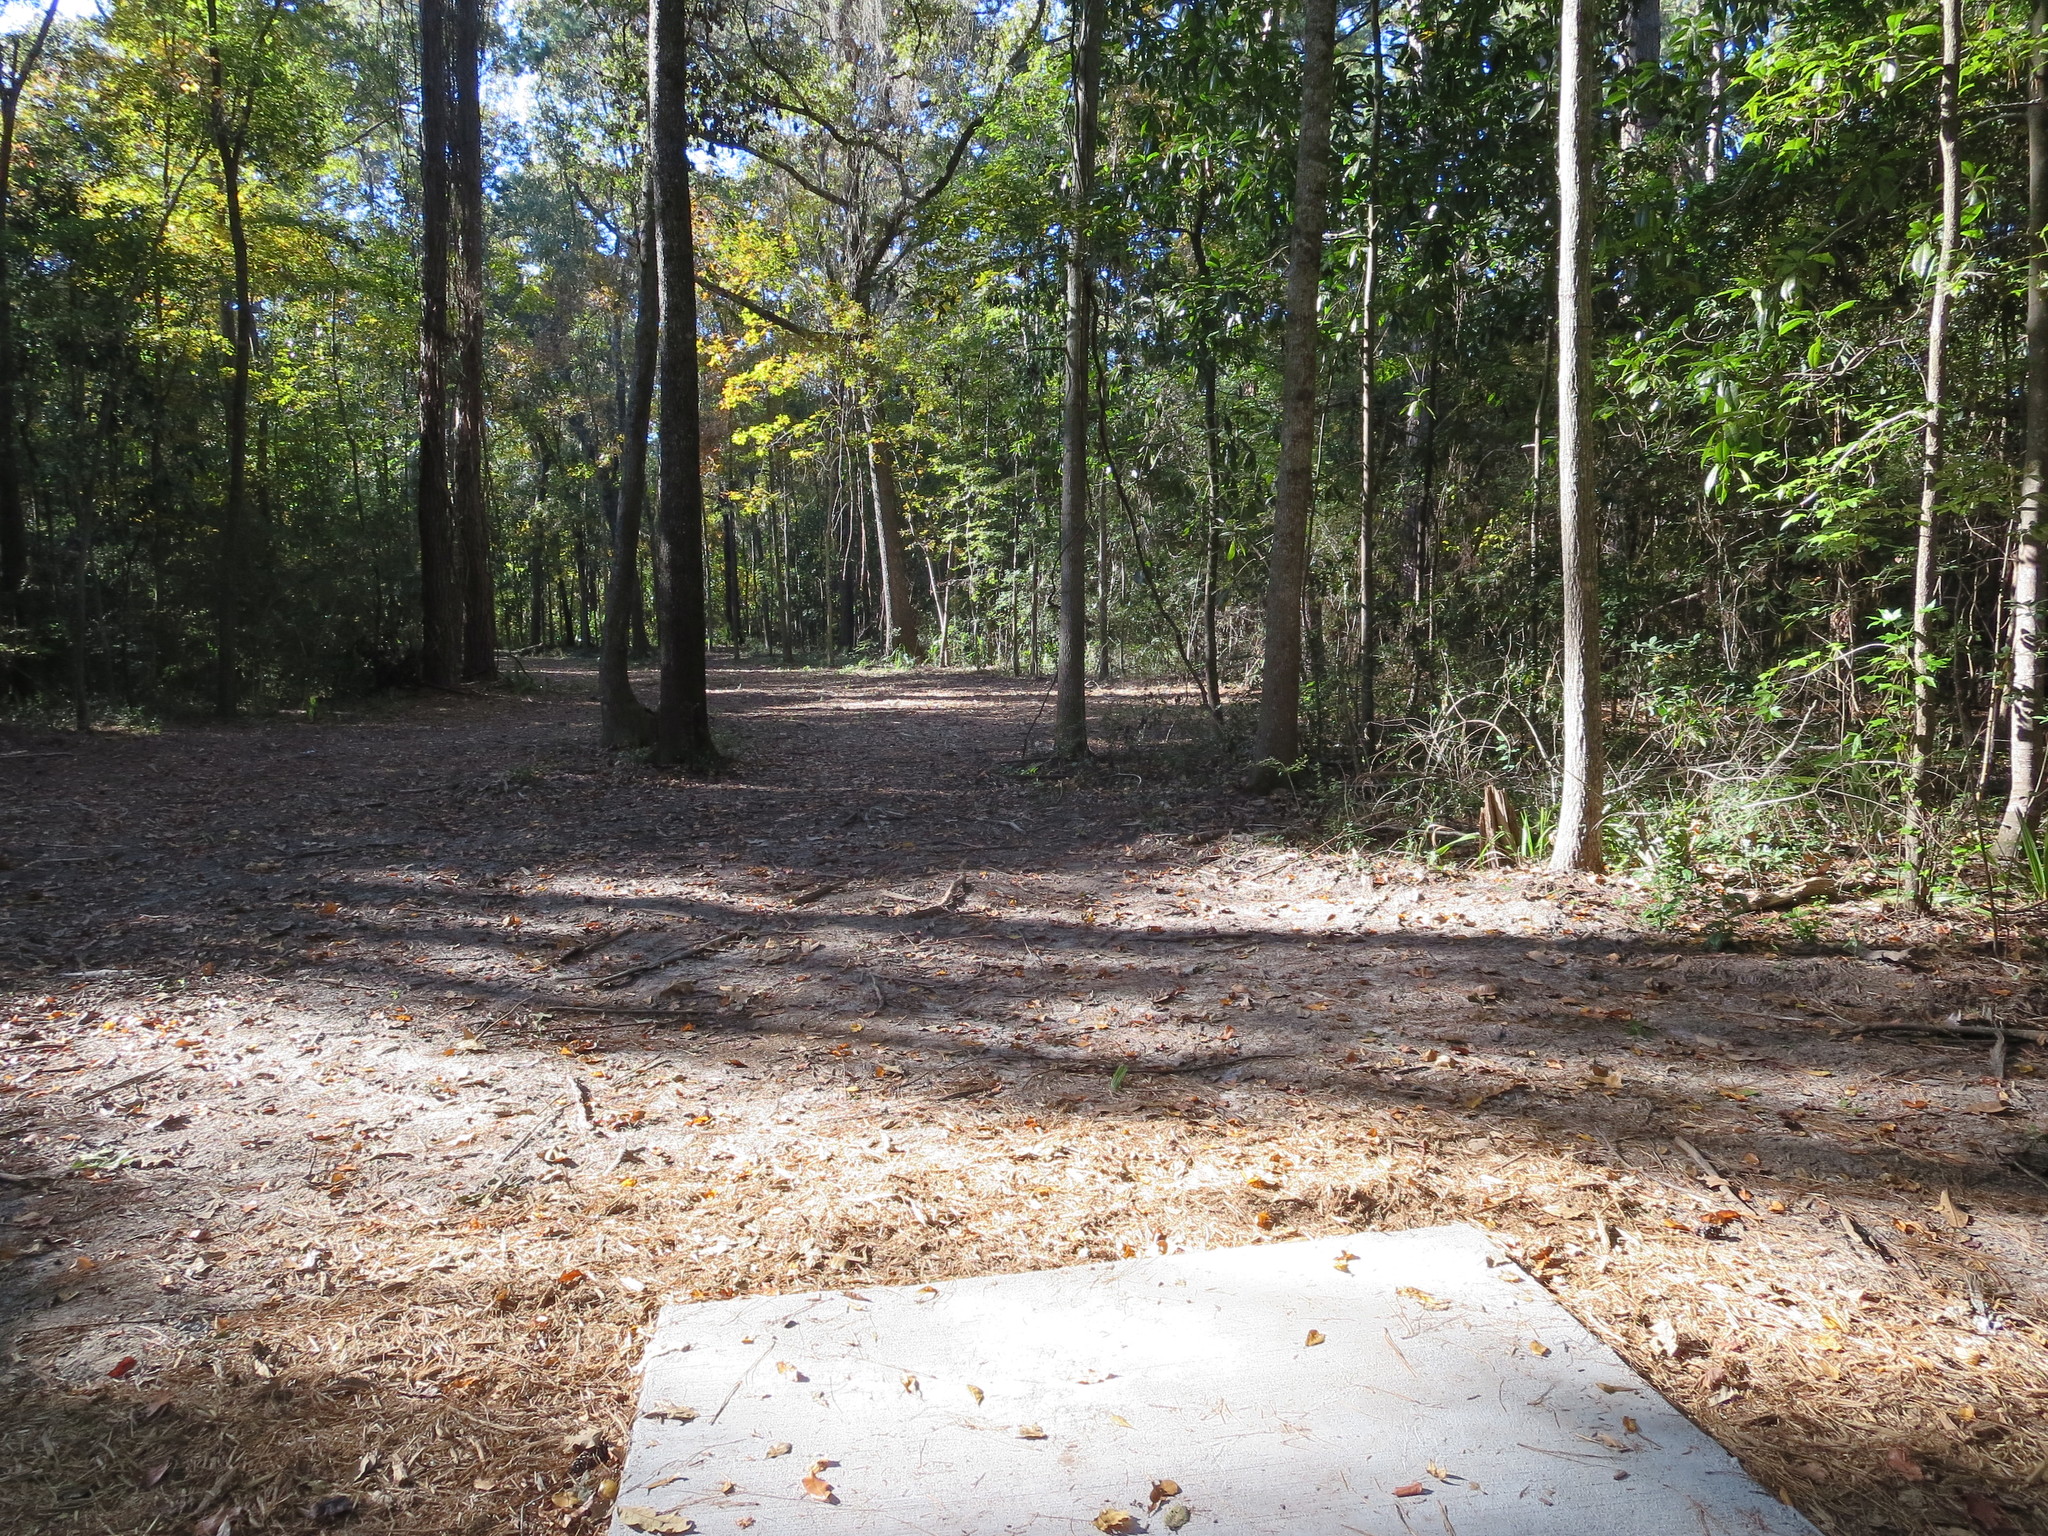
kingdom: Plantae
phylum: Tracheophyta
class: Magnoliopsida
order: Magnoliales
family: Annonaceae
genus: Asimina
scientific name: Asimina parviflora
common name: Dwarf pawpaw
